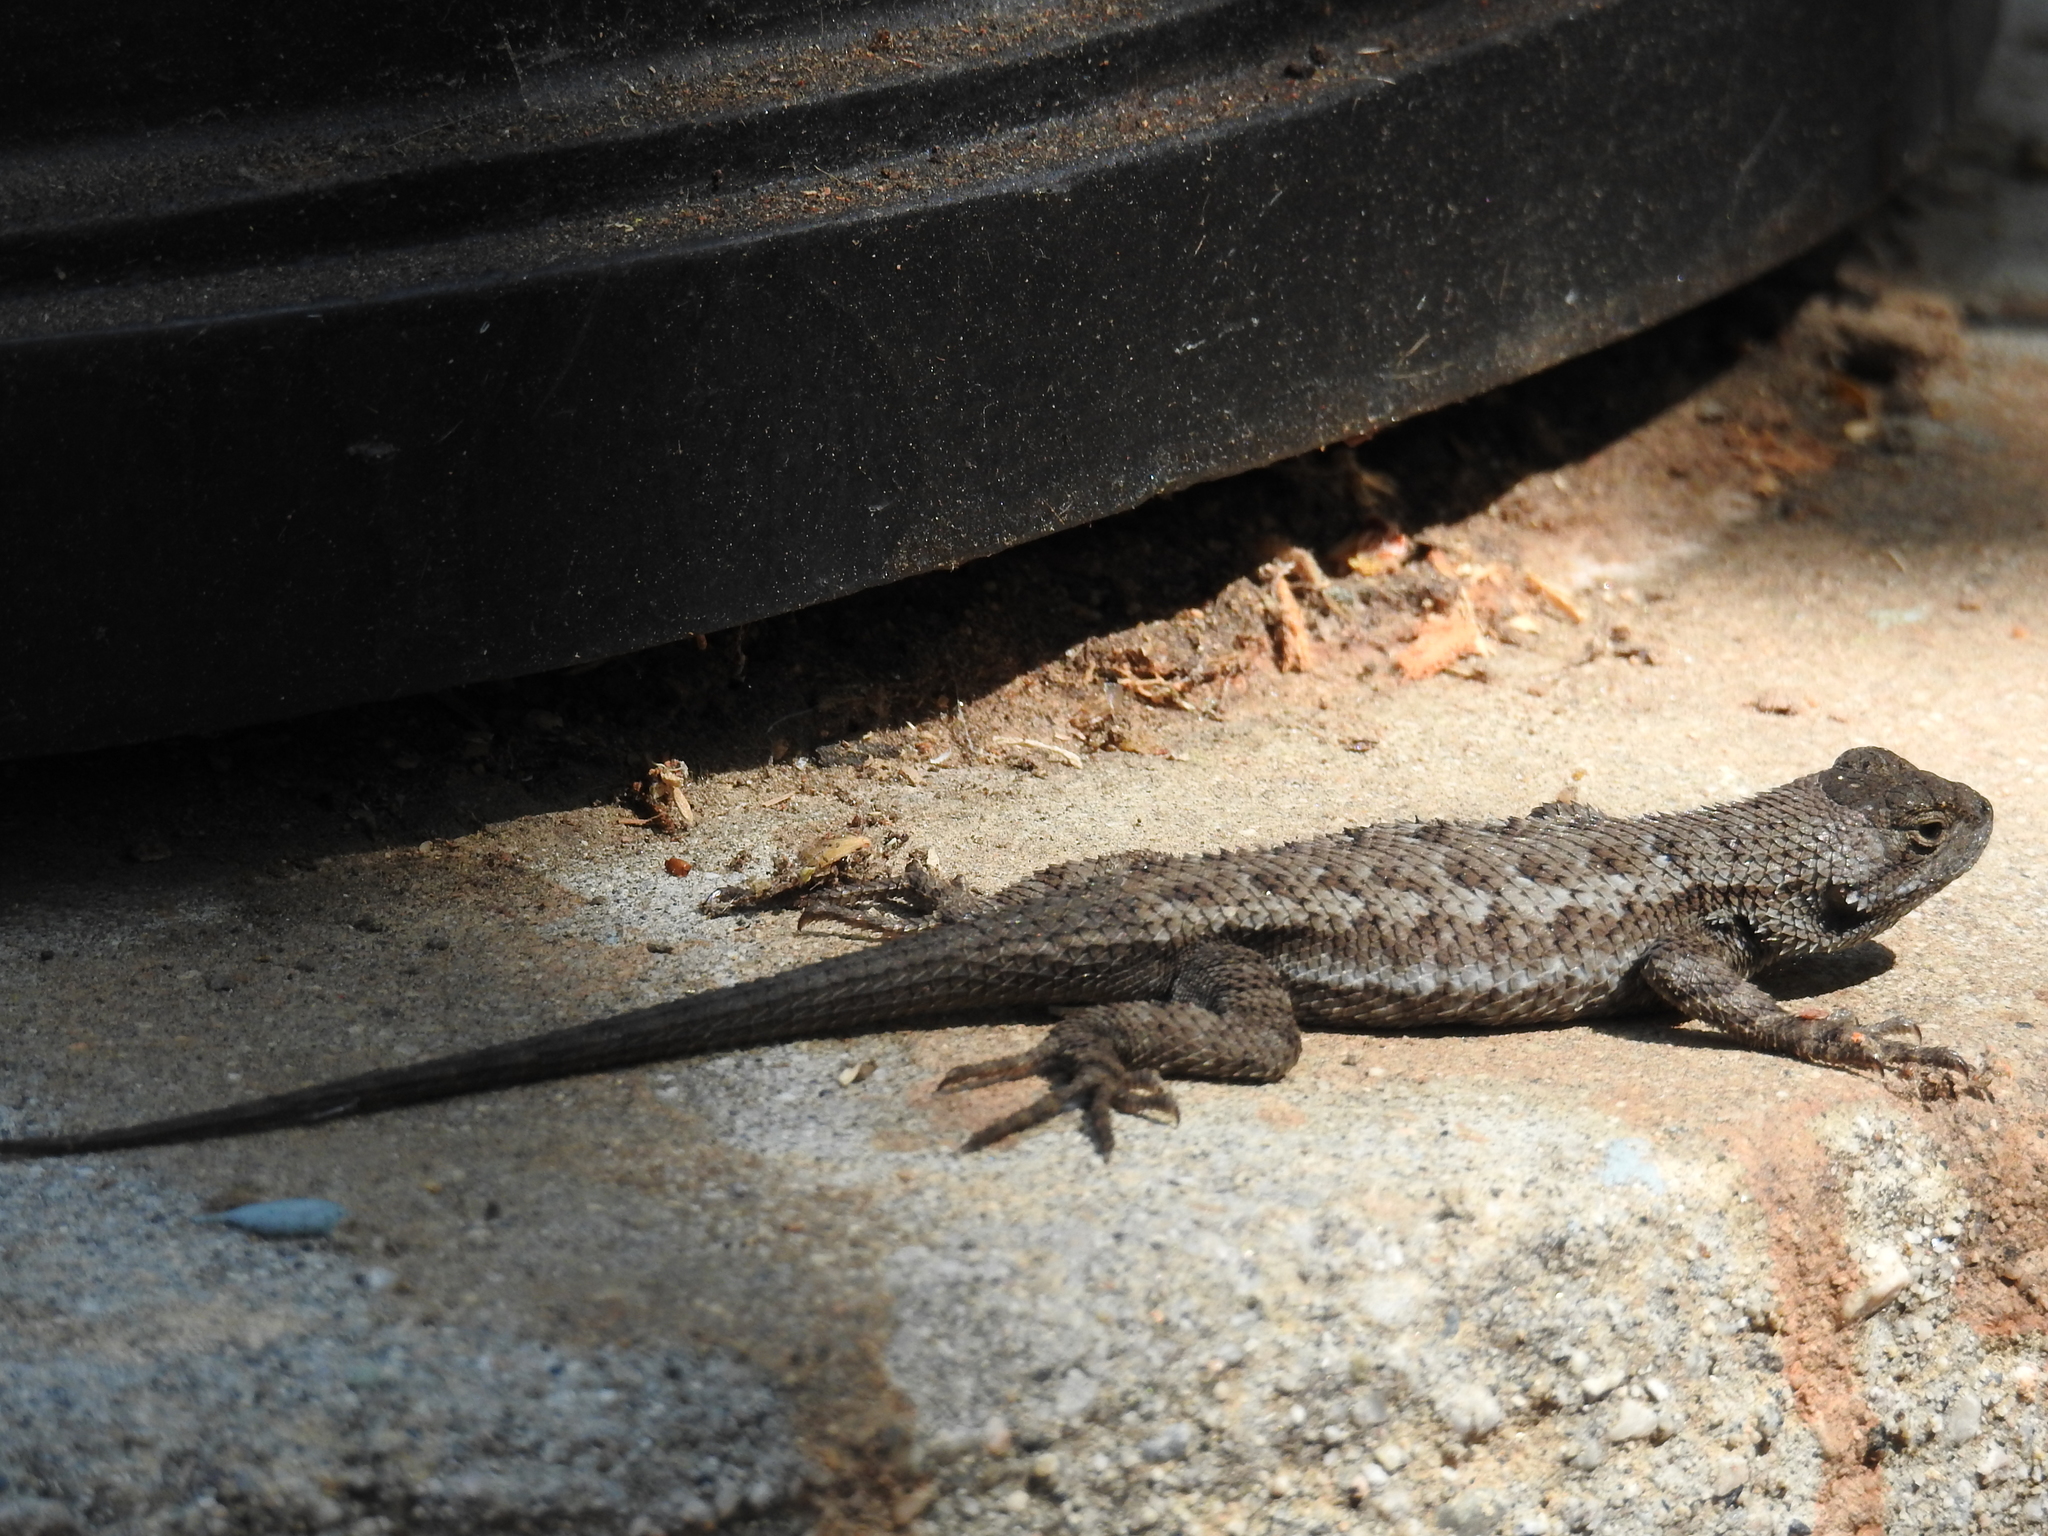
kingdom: Animalia
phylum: Chordata
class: Squamata
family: Phrynosomatidae
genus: Sceloporus
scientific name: Sceloporus occidentalis
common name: Western fence lizard
